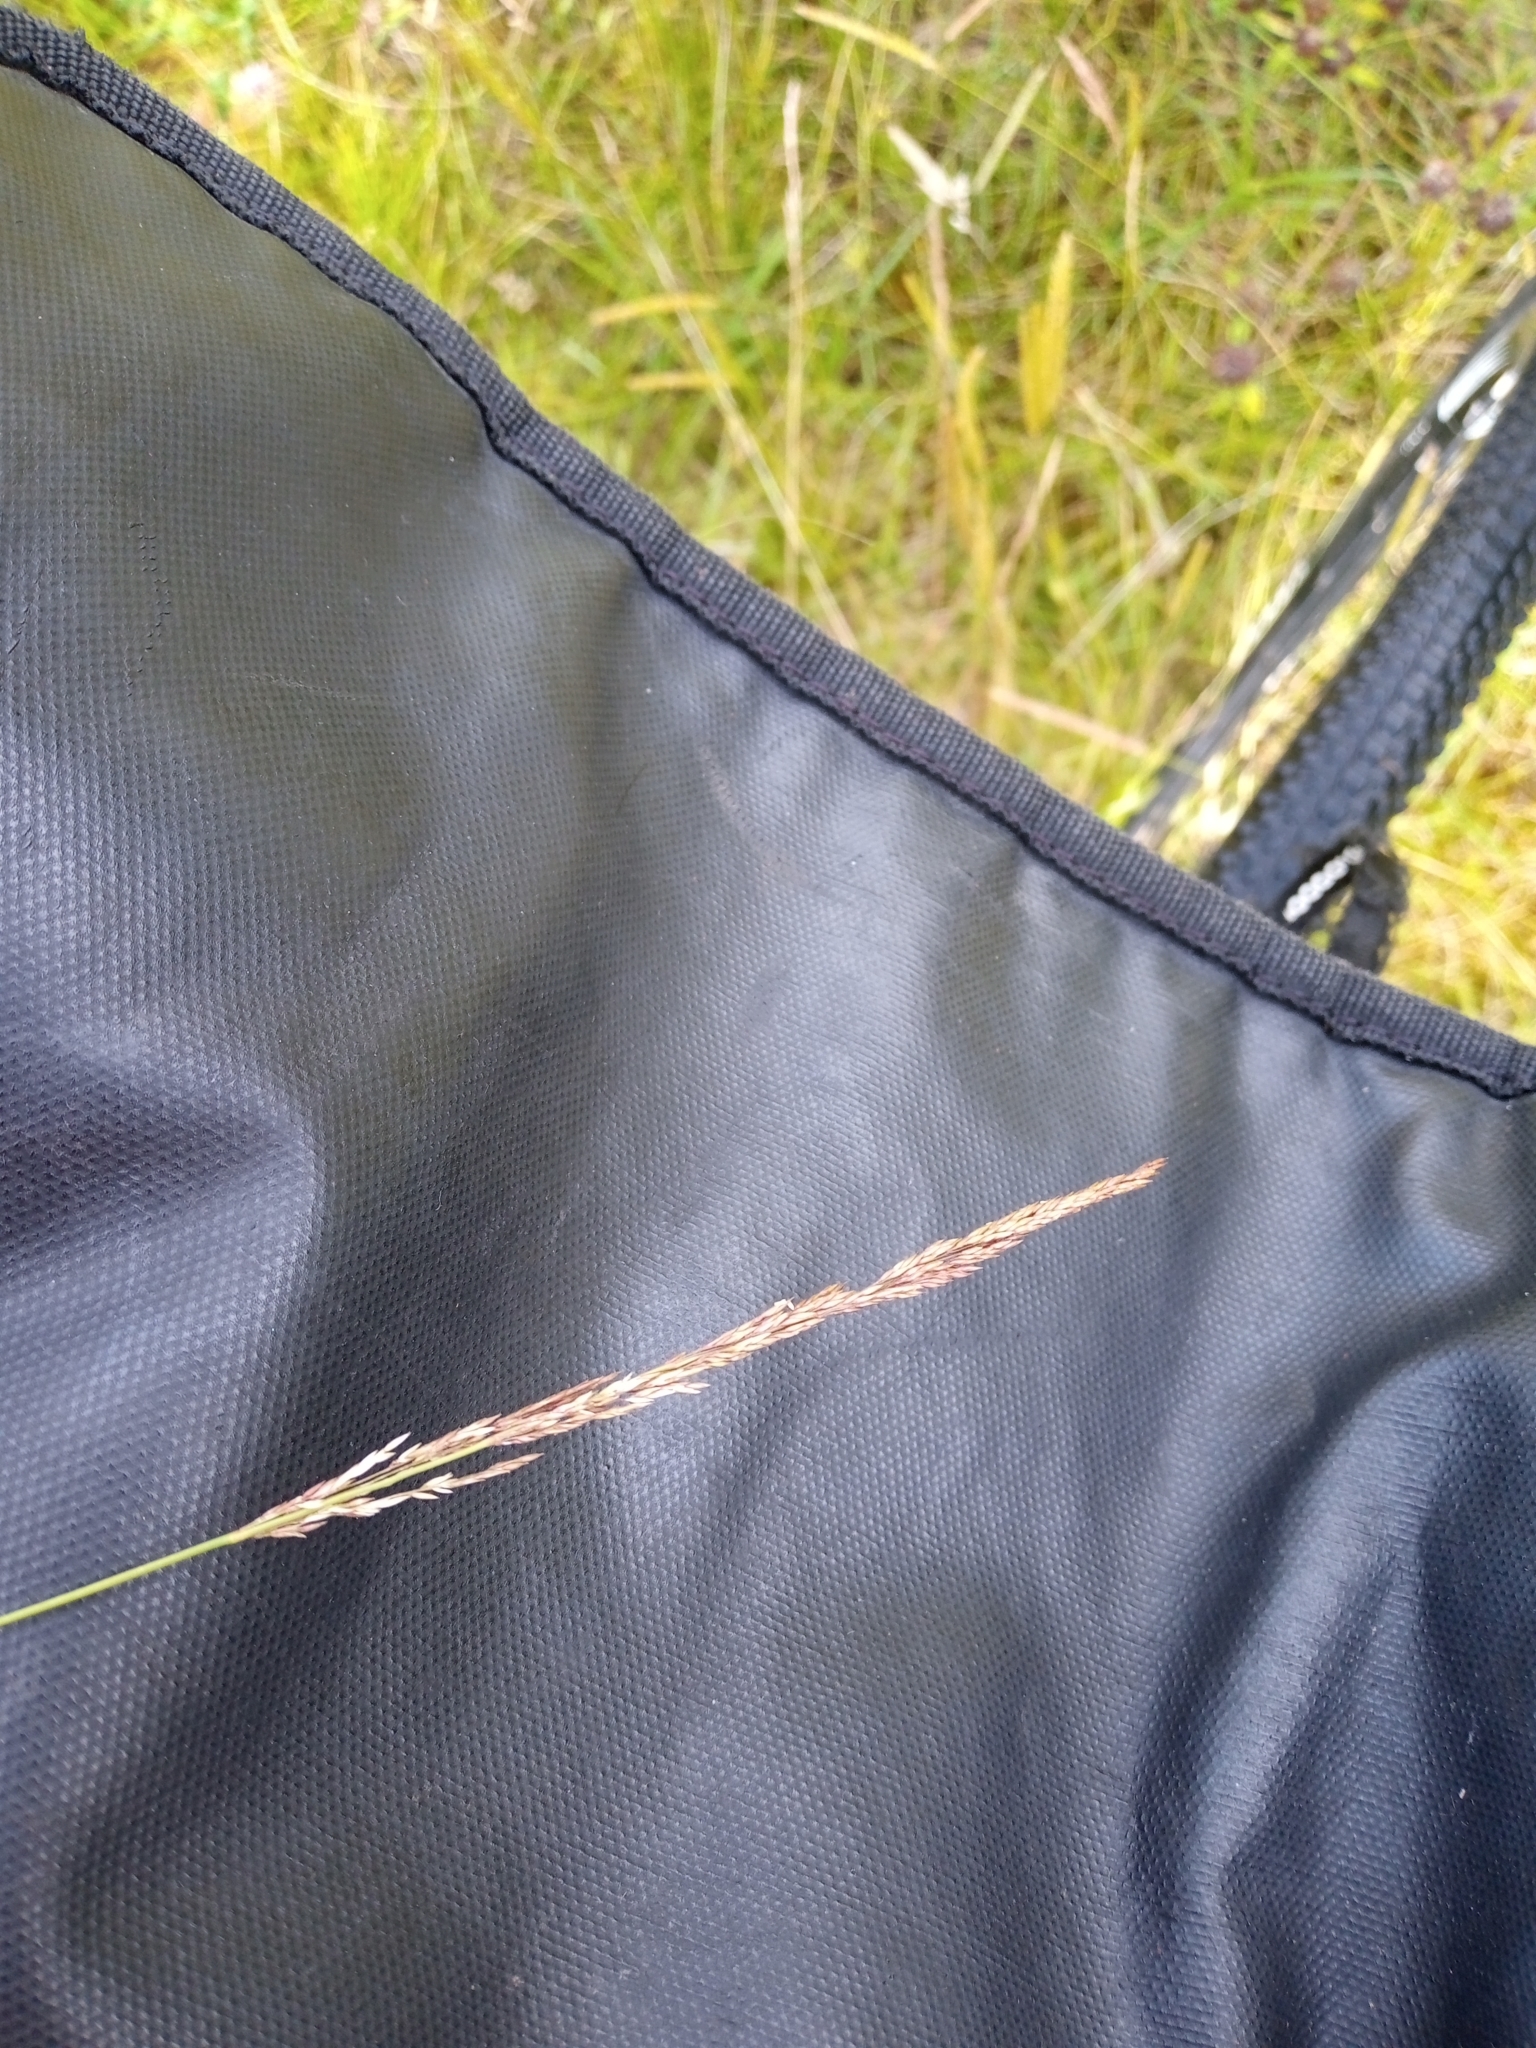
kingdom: Plantae
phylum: Tracheophyta
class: Liliopsida
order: Poales
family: Poaceae
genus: Festuca
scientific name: Festuca rubra
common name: Red fescue
